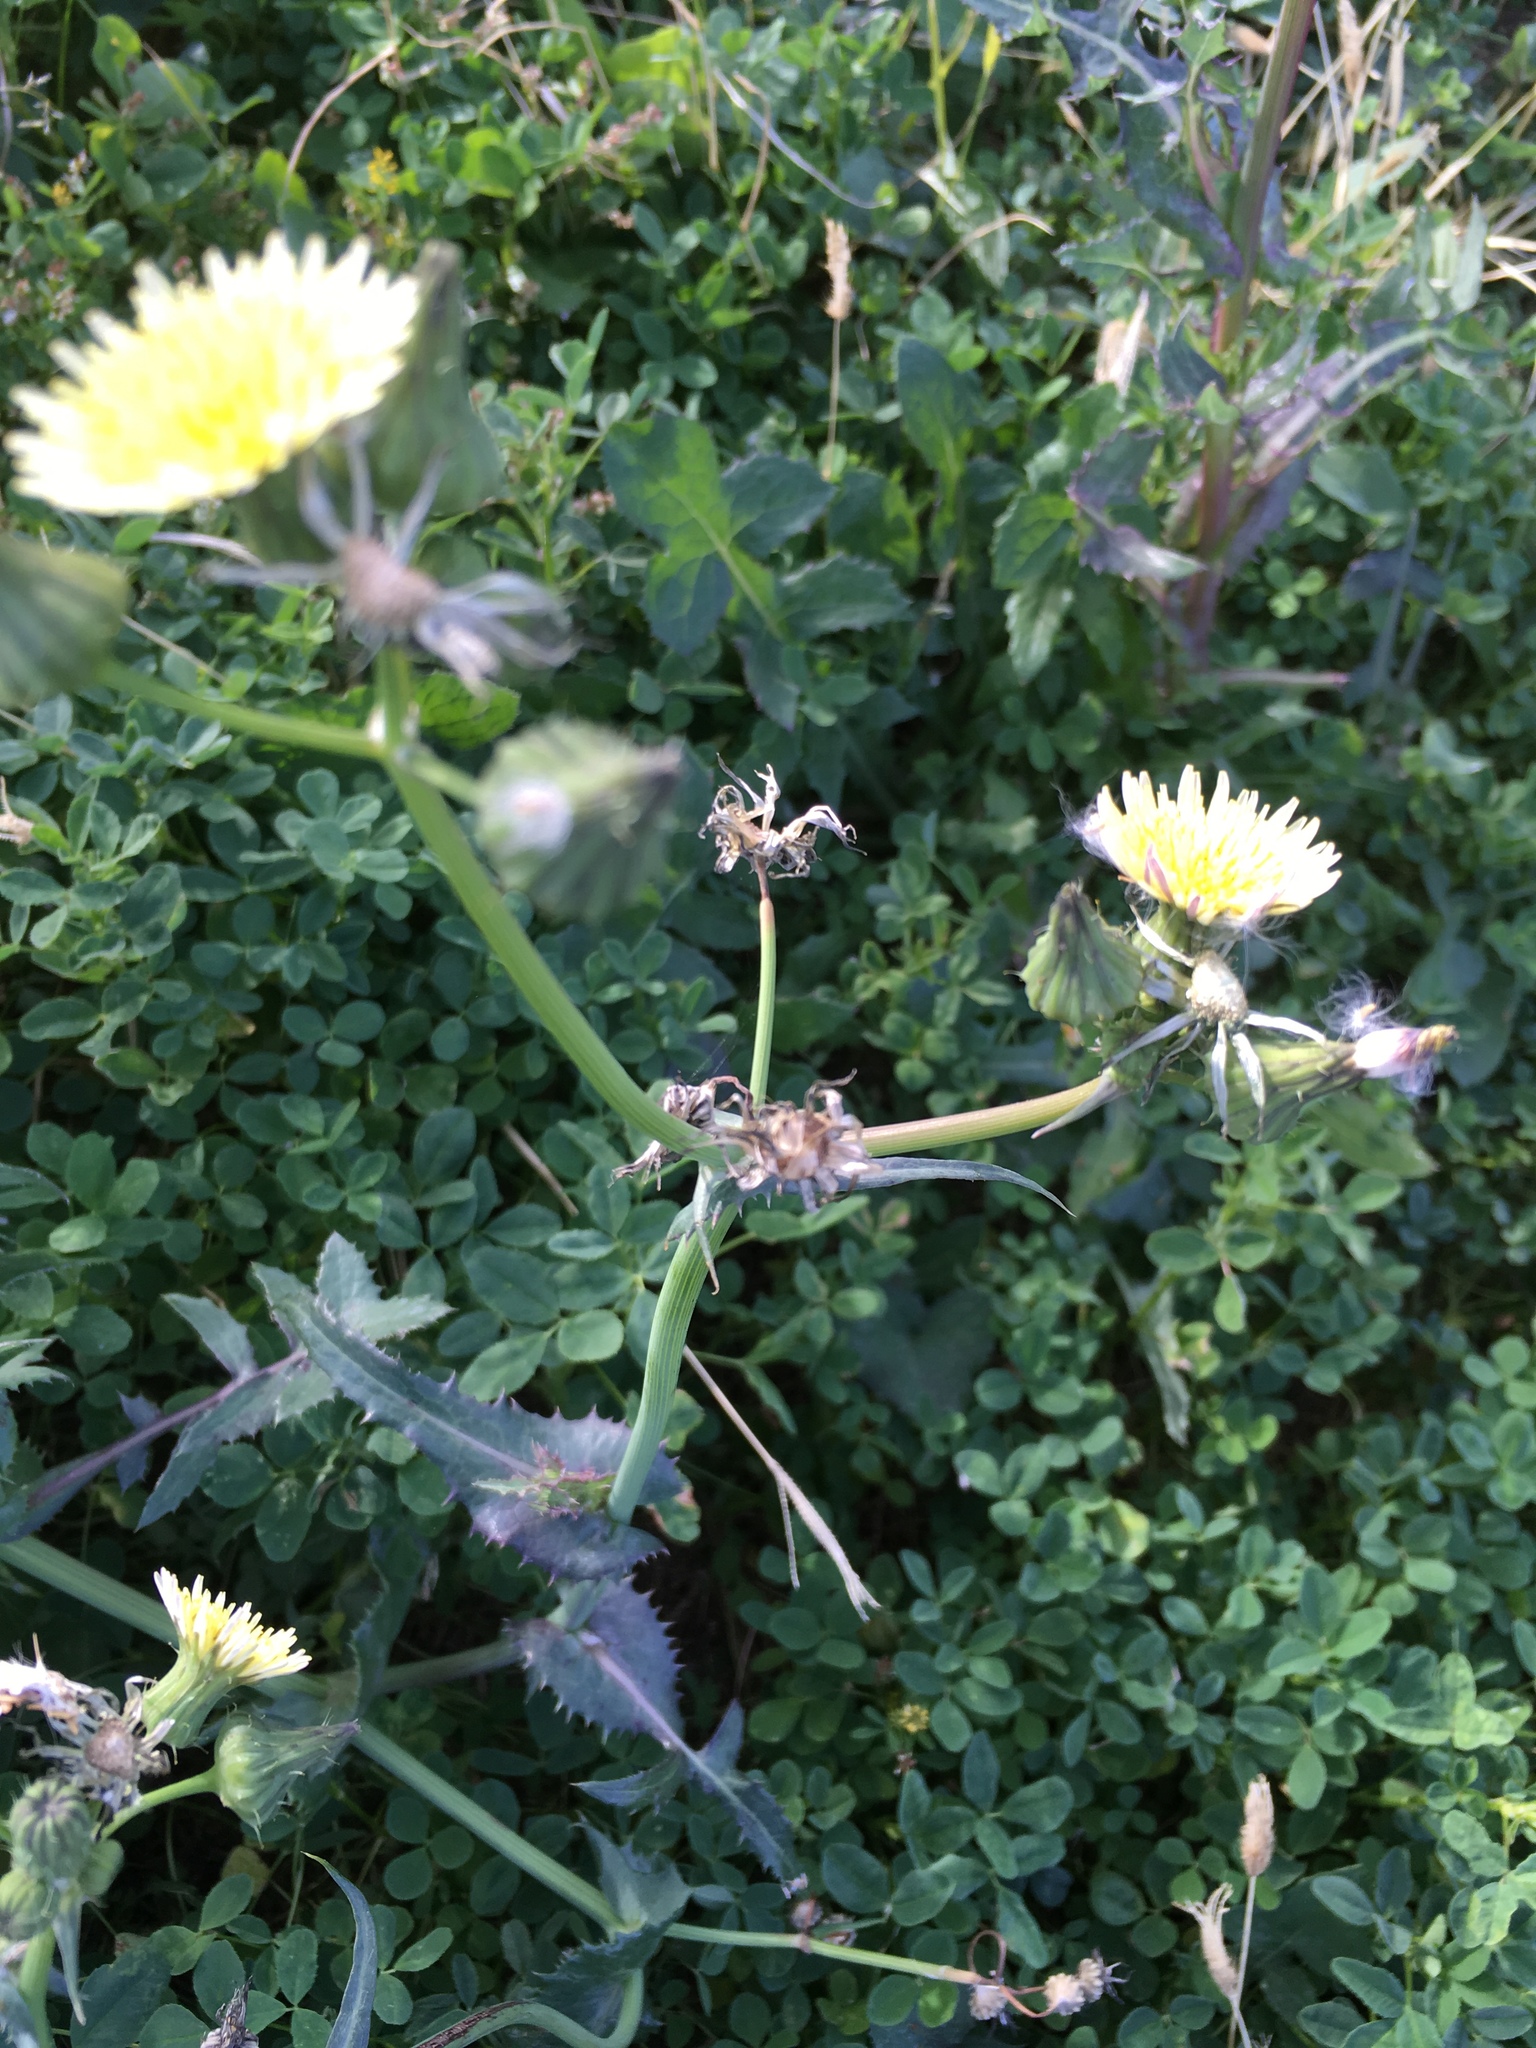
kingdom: Plantae
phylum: Tracheophyta
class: Magnoliopsida
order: Asterales
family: Asteraceae
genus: Sonchus
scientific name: Sonchus oleraceus
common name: Common sowthistle
